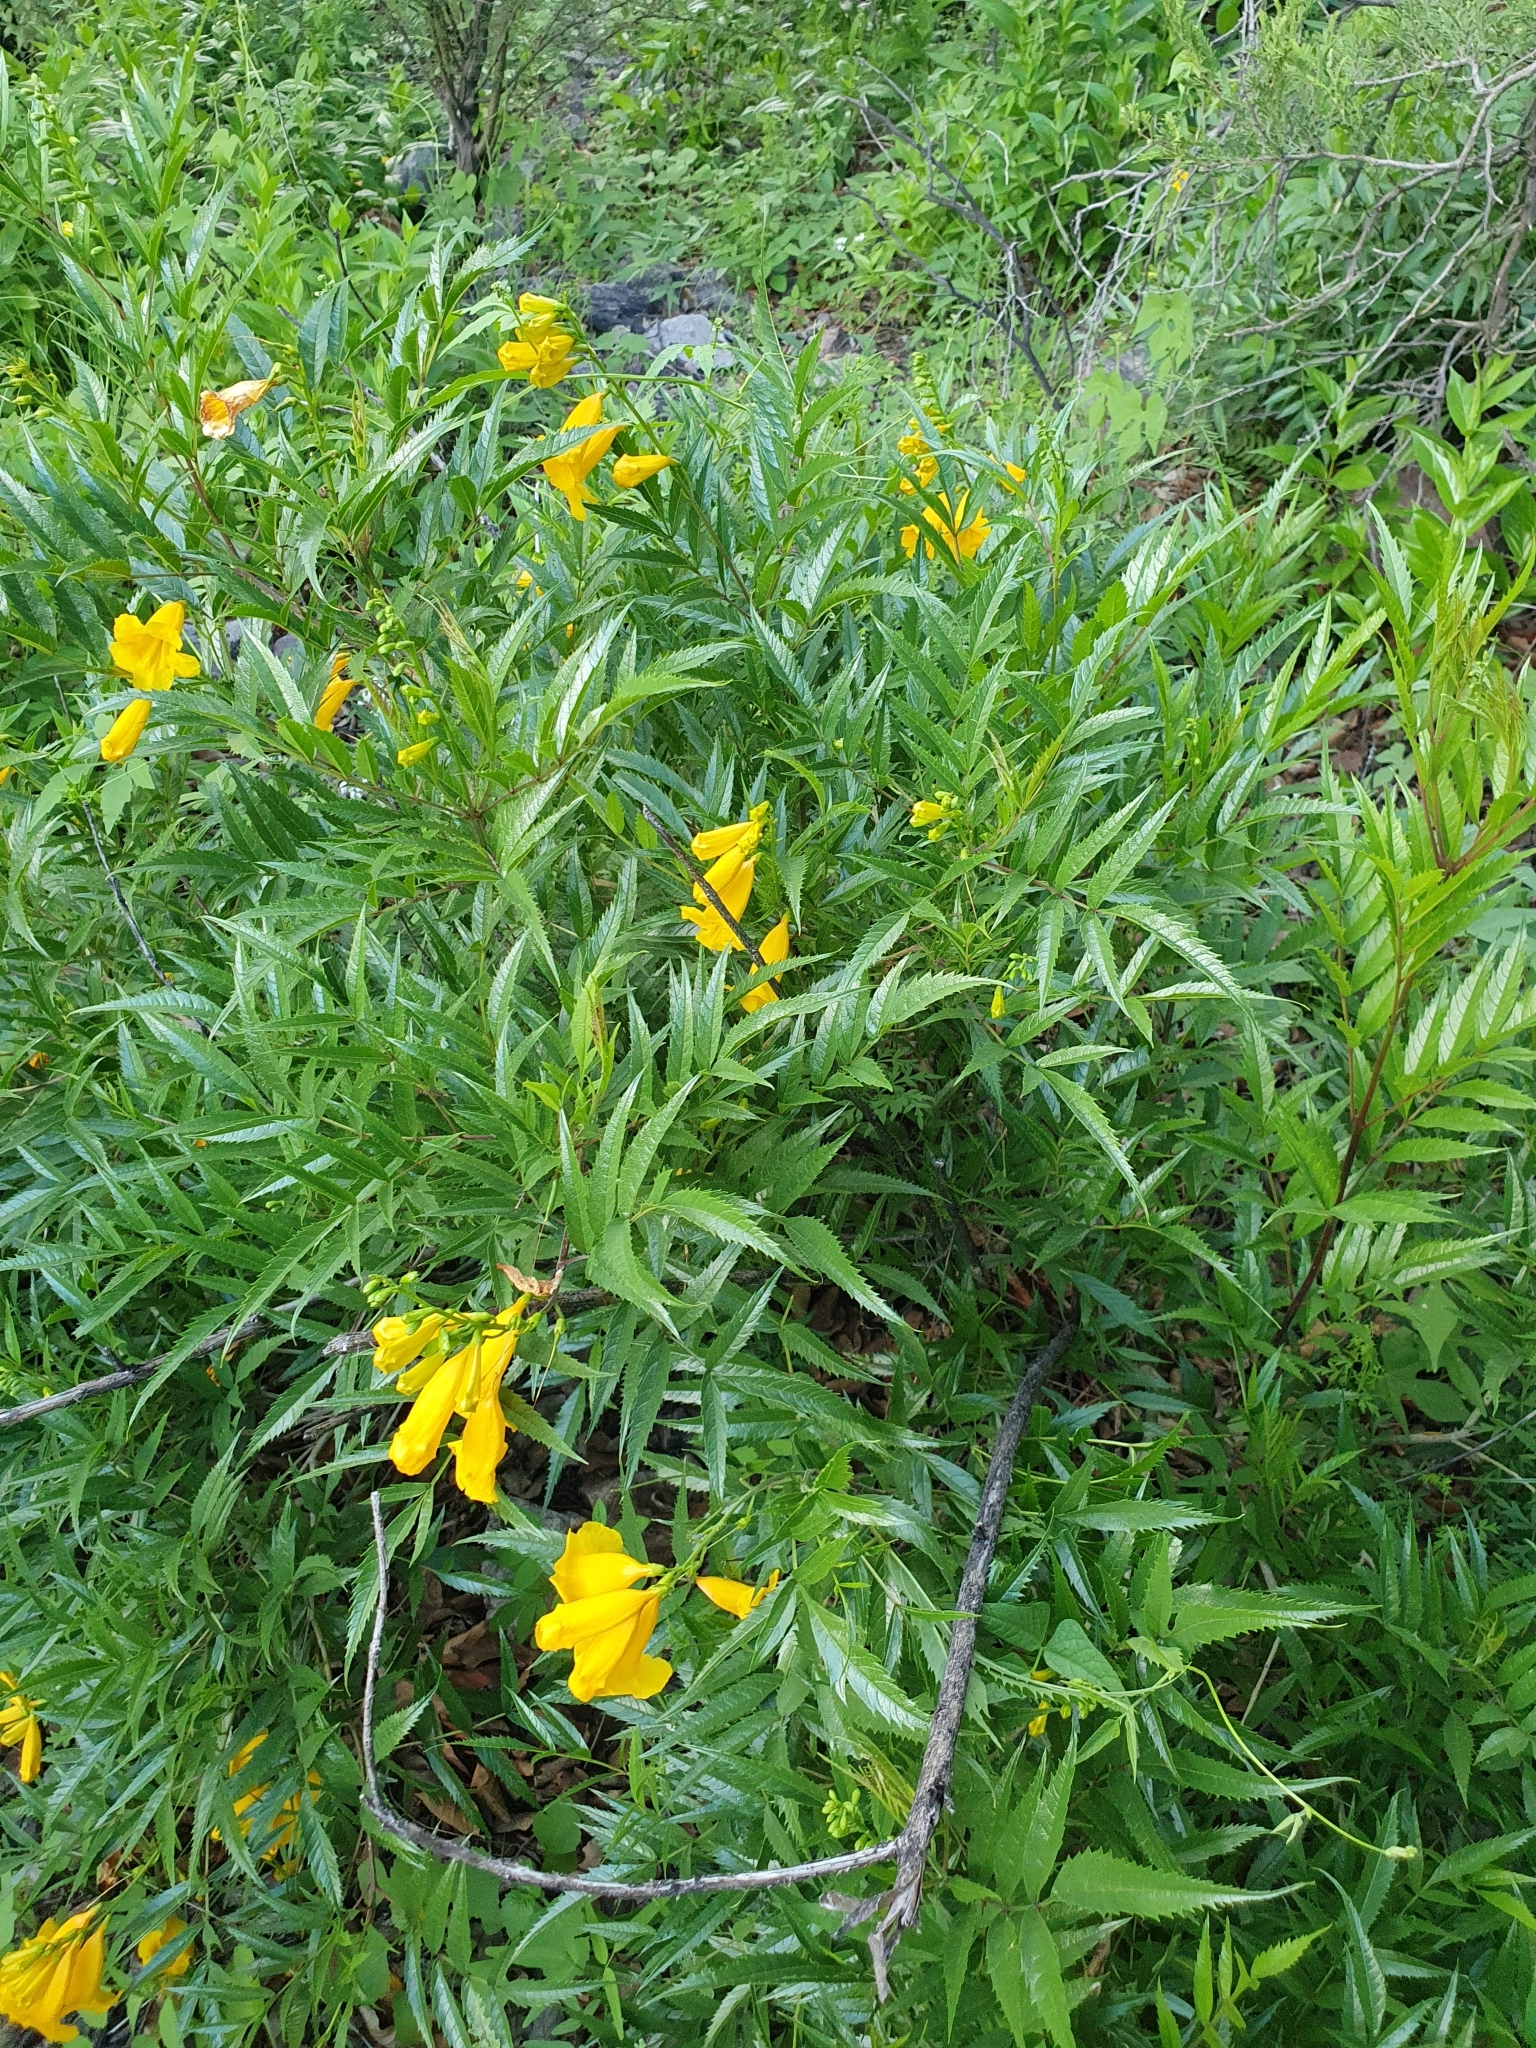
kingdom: Plantae
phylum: Tracheophyta
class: Magnoliopsida
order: Lamiales
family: Bignoniaceae
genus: Tecoma
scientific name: Tecoma stans
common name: Yellow trumpetbush
